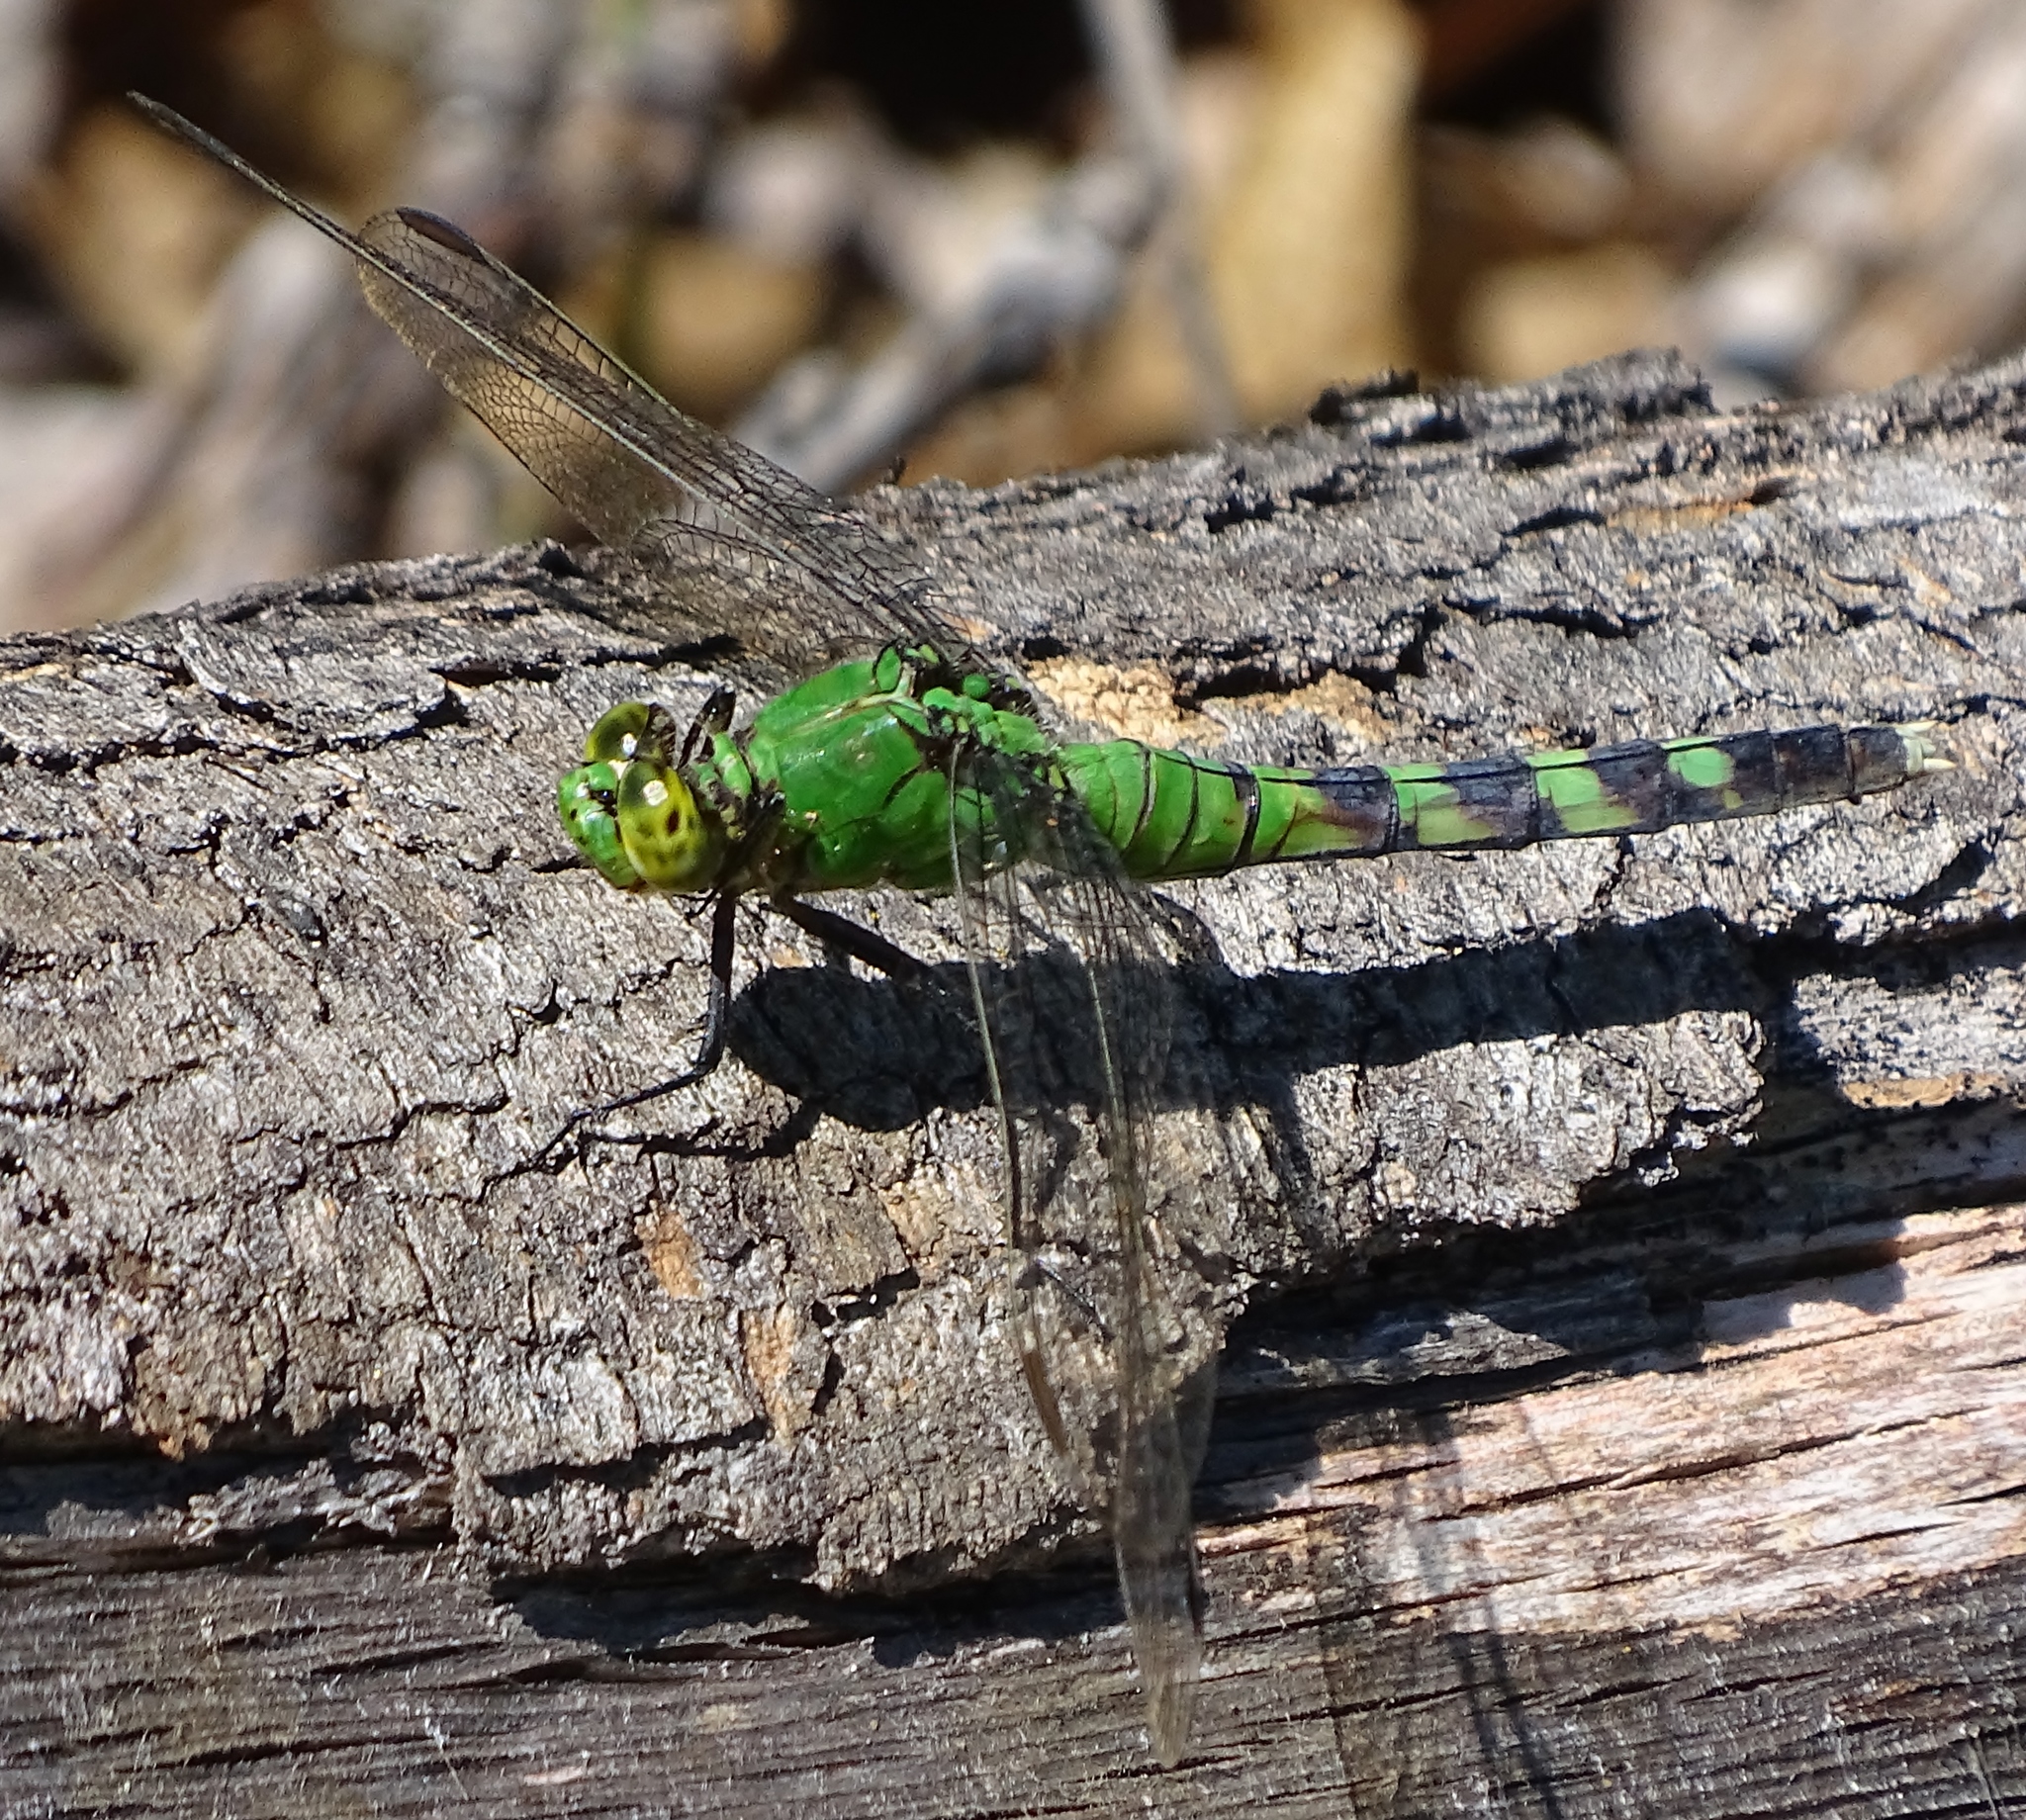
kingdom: Animalia
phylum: Arthropoda
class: Insecta
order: Odonata
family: Libellulidae
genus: Erythemis
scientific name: Erythemis simplicicollis
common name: Eastern pondhawk
